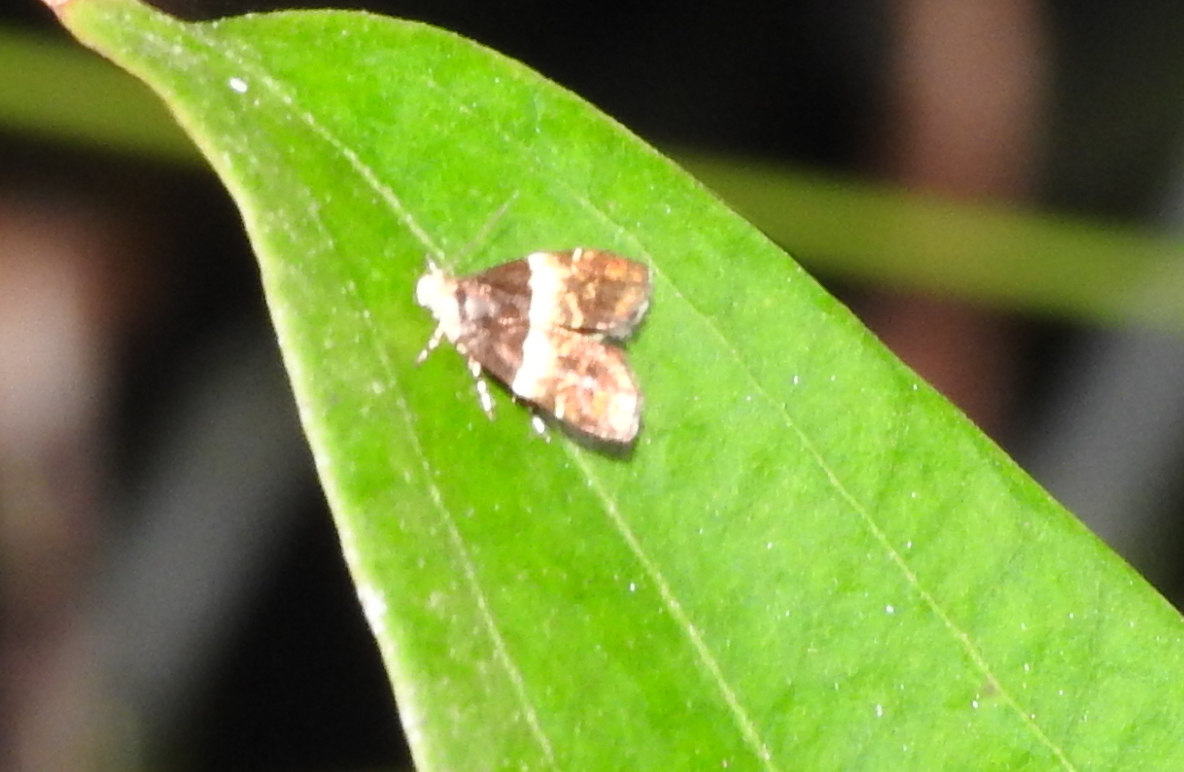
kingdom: Animalia
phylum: Arthropoda
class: Insecta
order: Lepidoptera
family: Choreutidae
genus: Choreutis
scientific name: Choreutis argyroxantha
